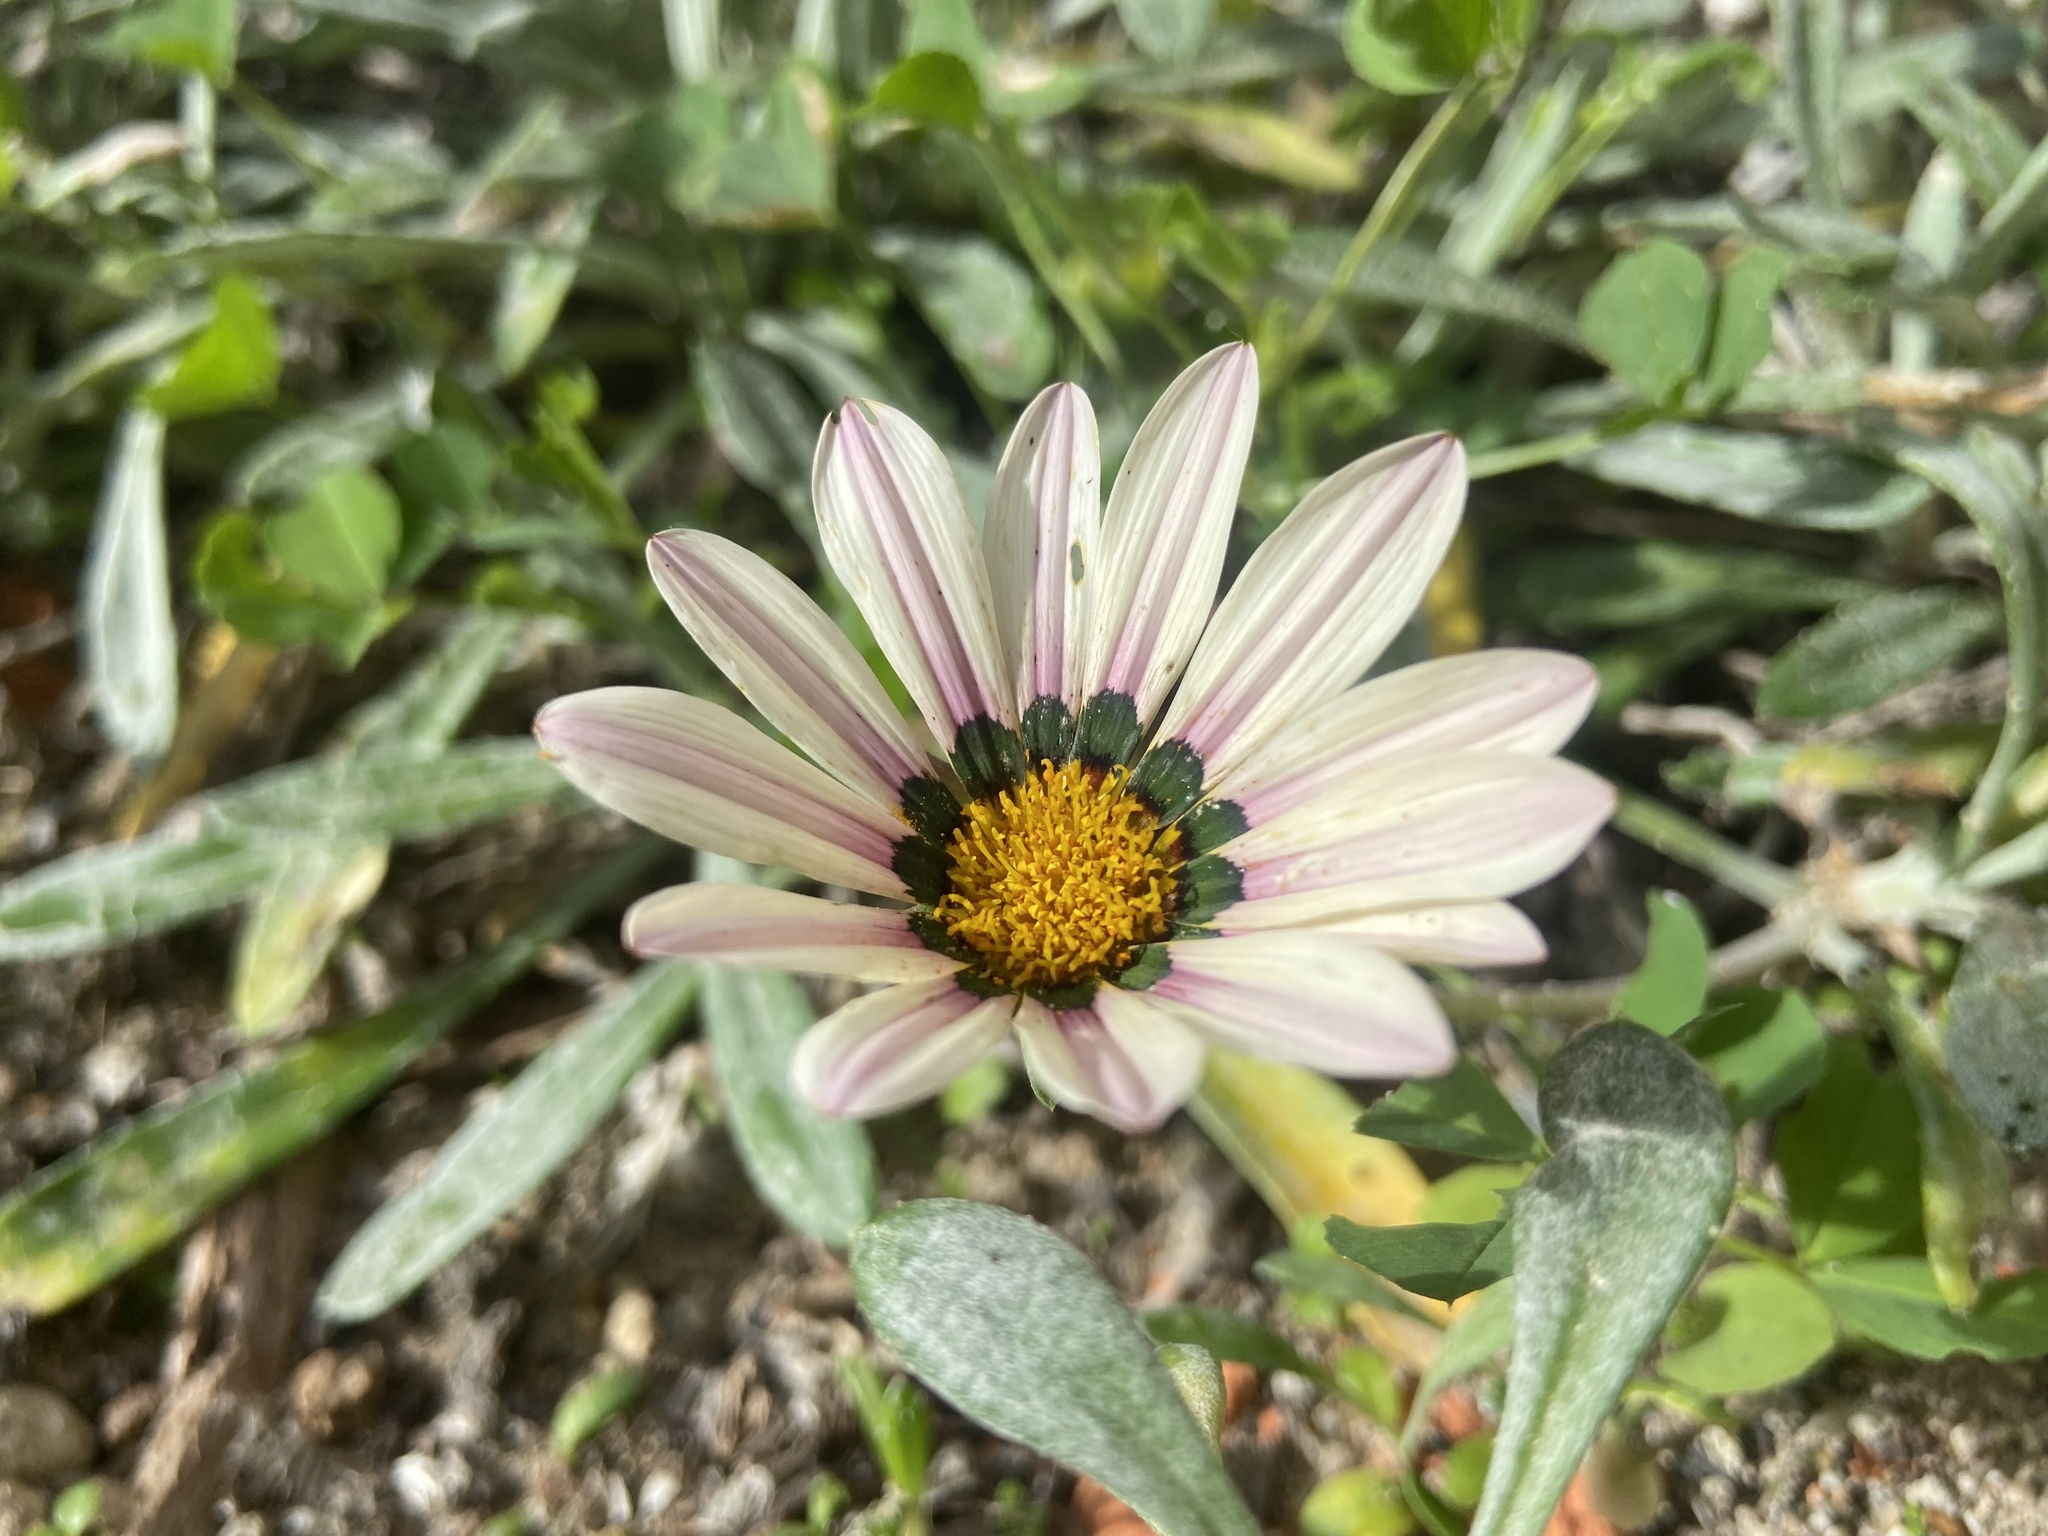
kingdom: Plantae
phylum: Tracheophyta
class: Magnoliopsida
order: Asterales
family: Asteraceae
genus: Gazania
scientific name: Gazania splendens
